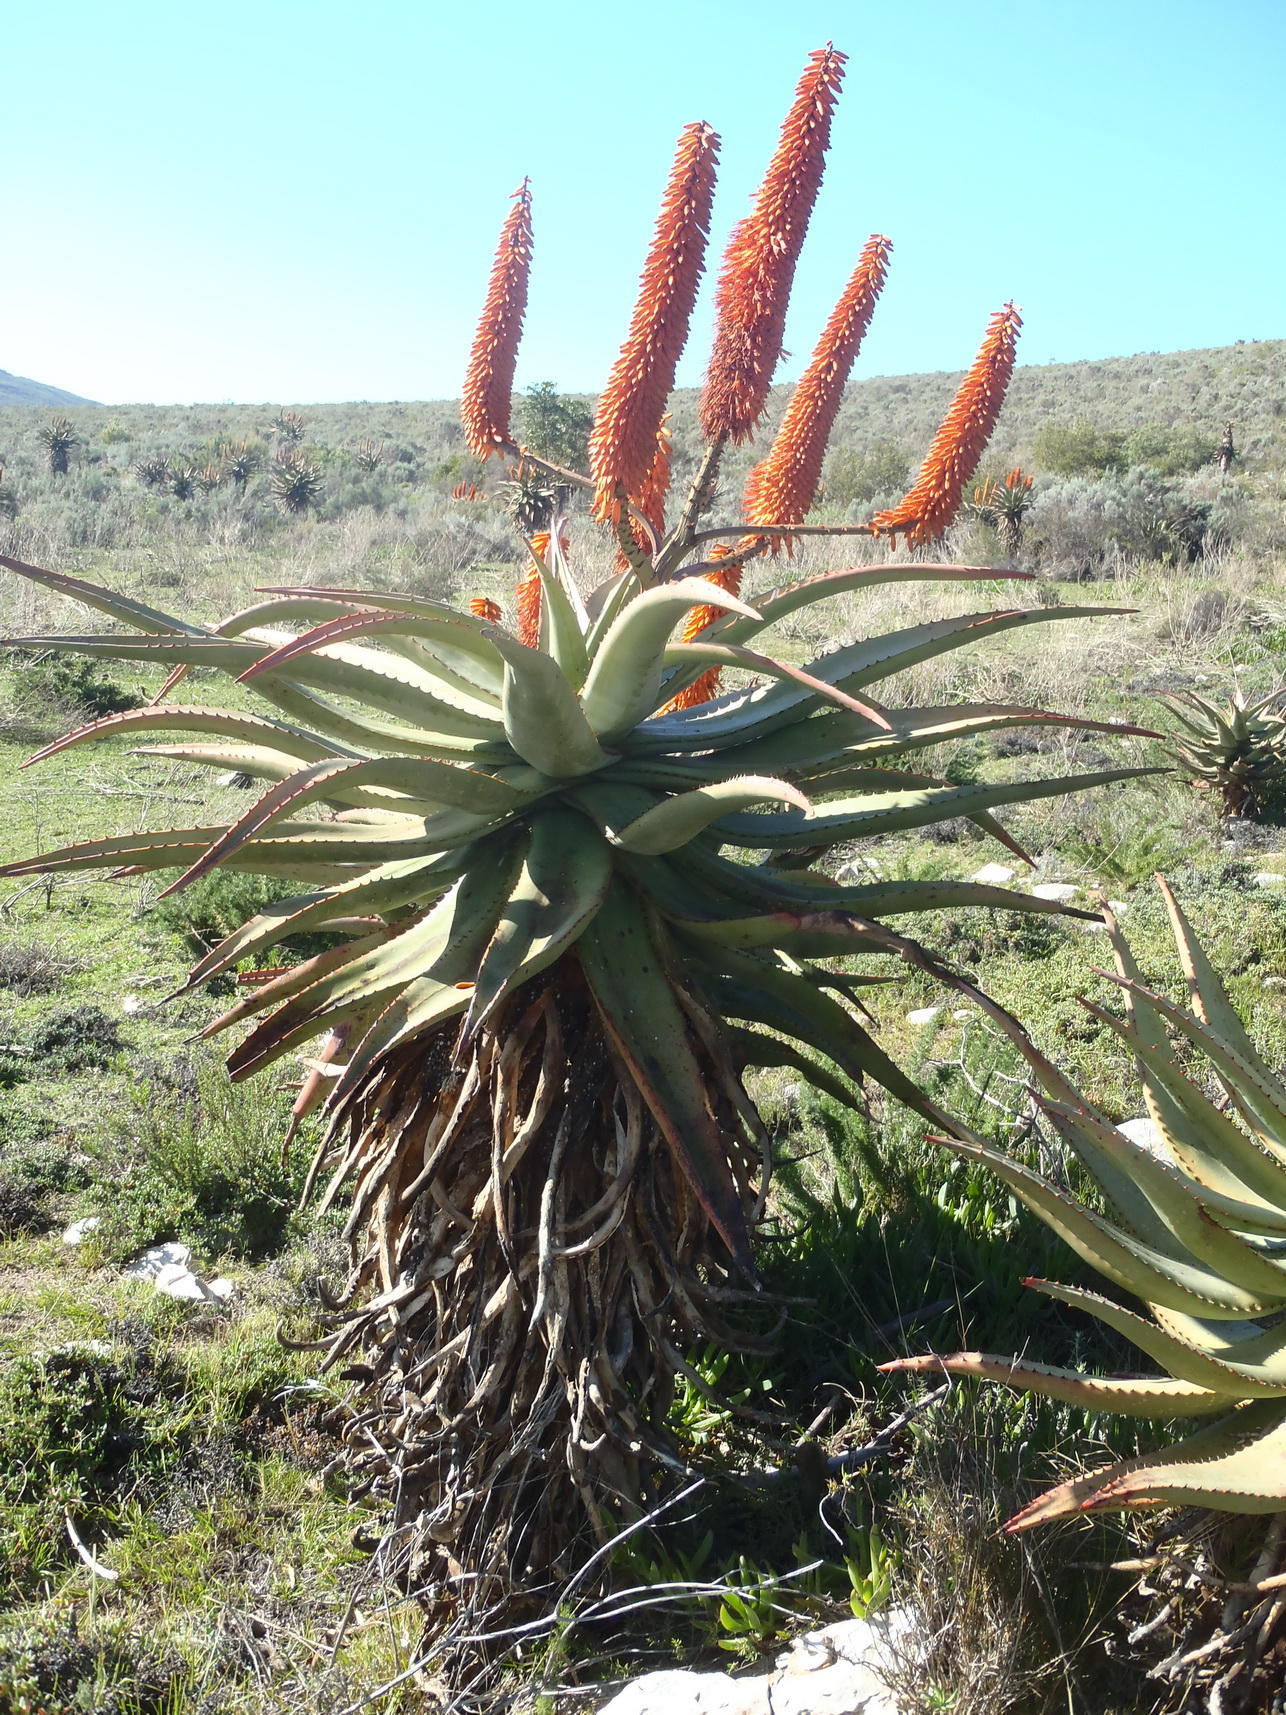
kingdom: Plantae
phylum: Tracheophyta
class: Liliopsida
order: Asparagales
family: Asphodelaceae
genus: Aloe
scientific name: Aloe ferox
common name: Bitter aloe
